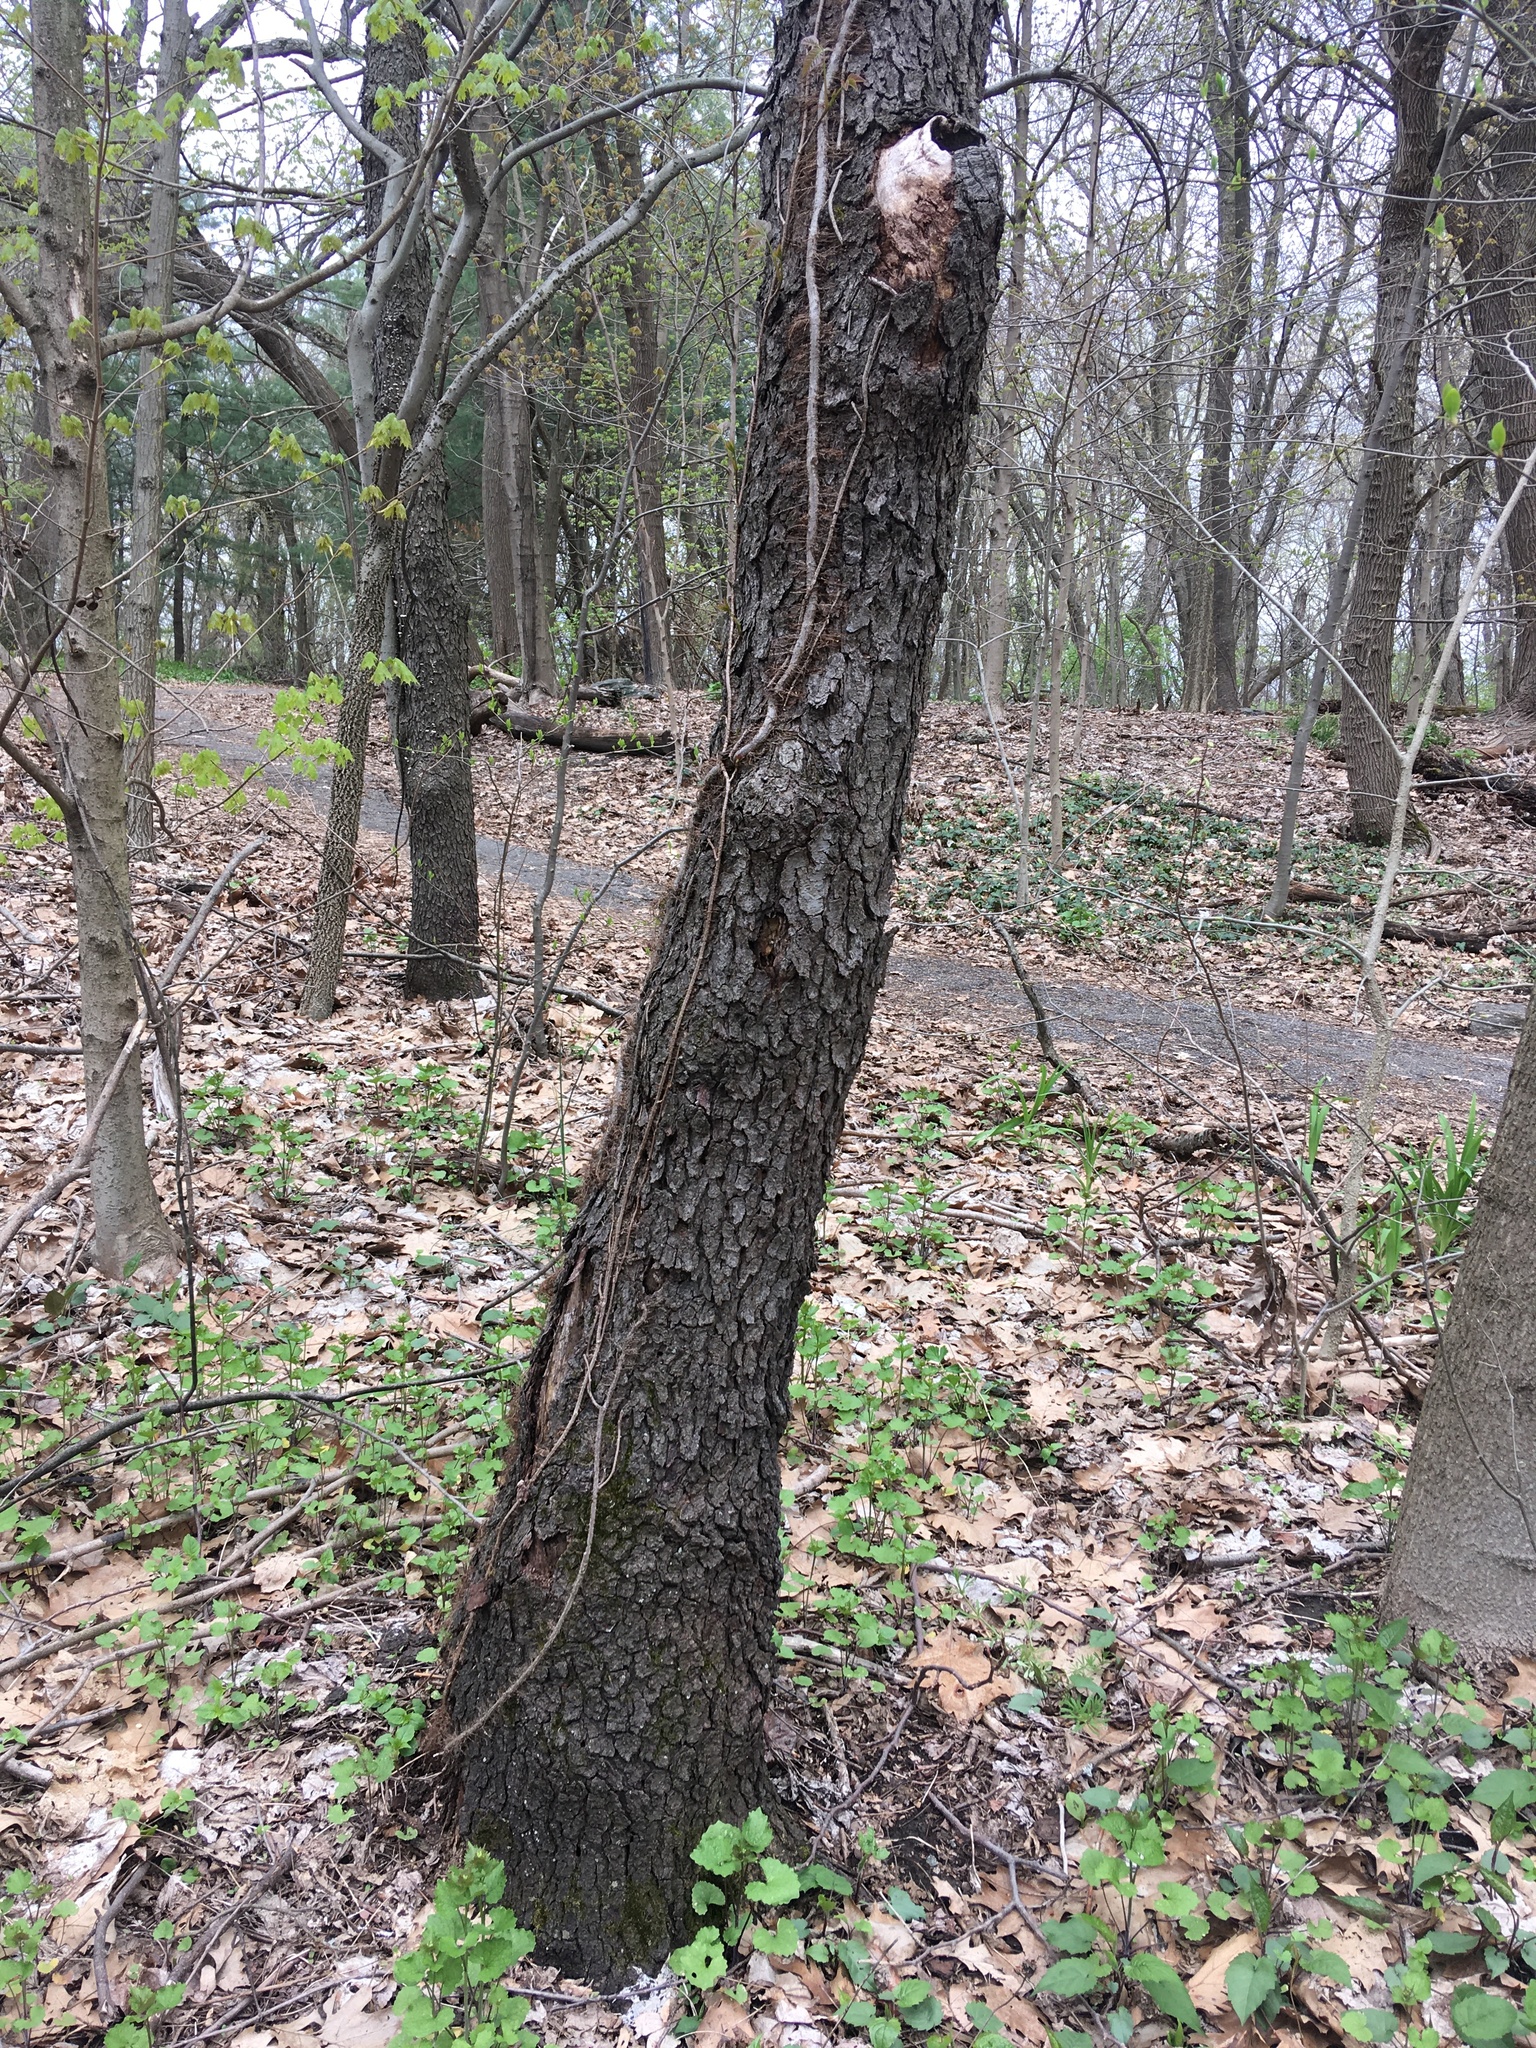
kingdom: Plantae
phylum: Tracheophyta
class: Magnoliopsida
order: Rosales
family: Rosaceae
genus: Prunus
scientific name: Prunus serotina
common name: Black cherry
